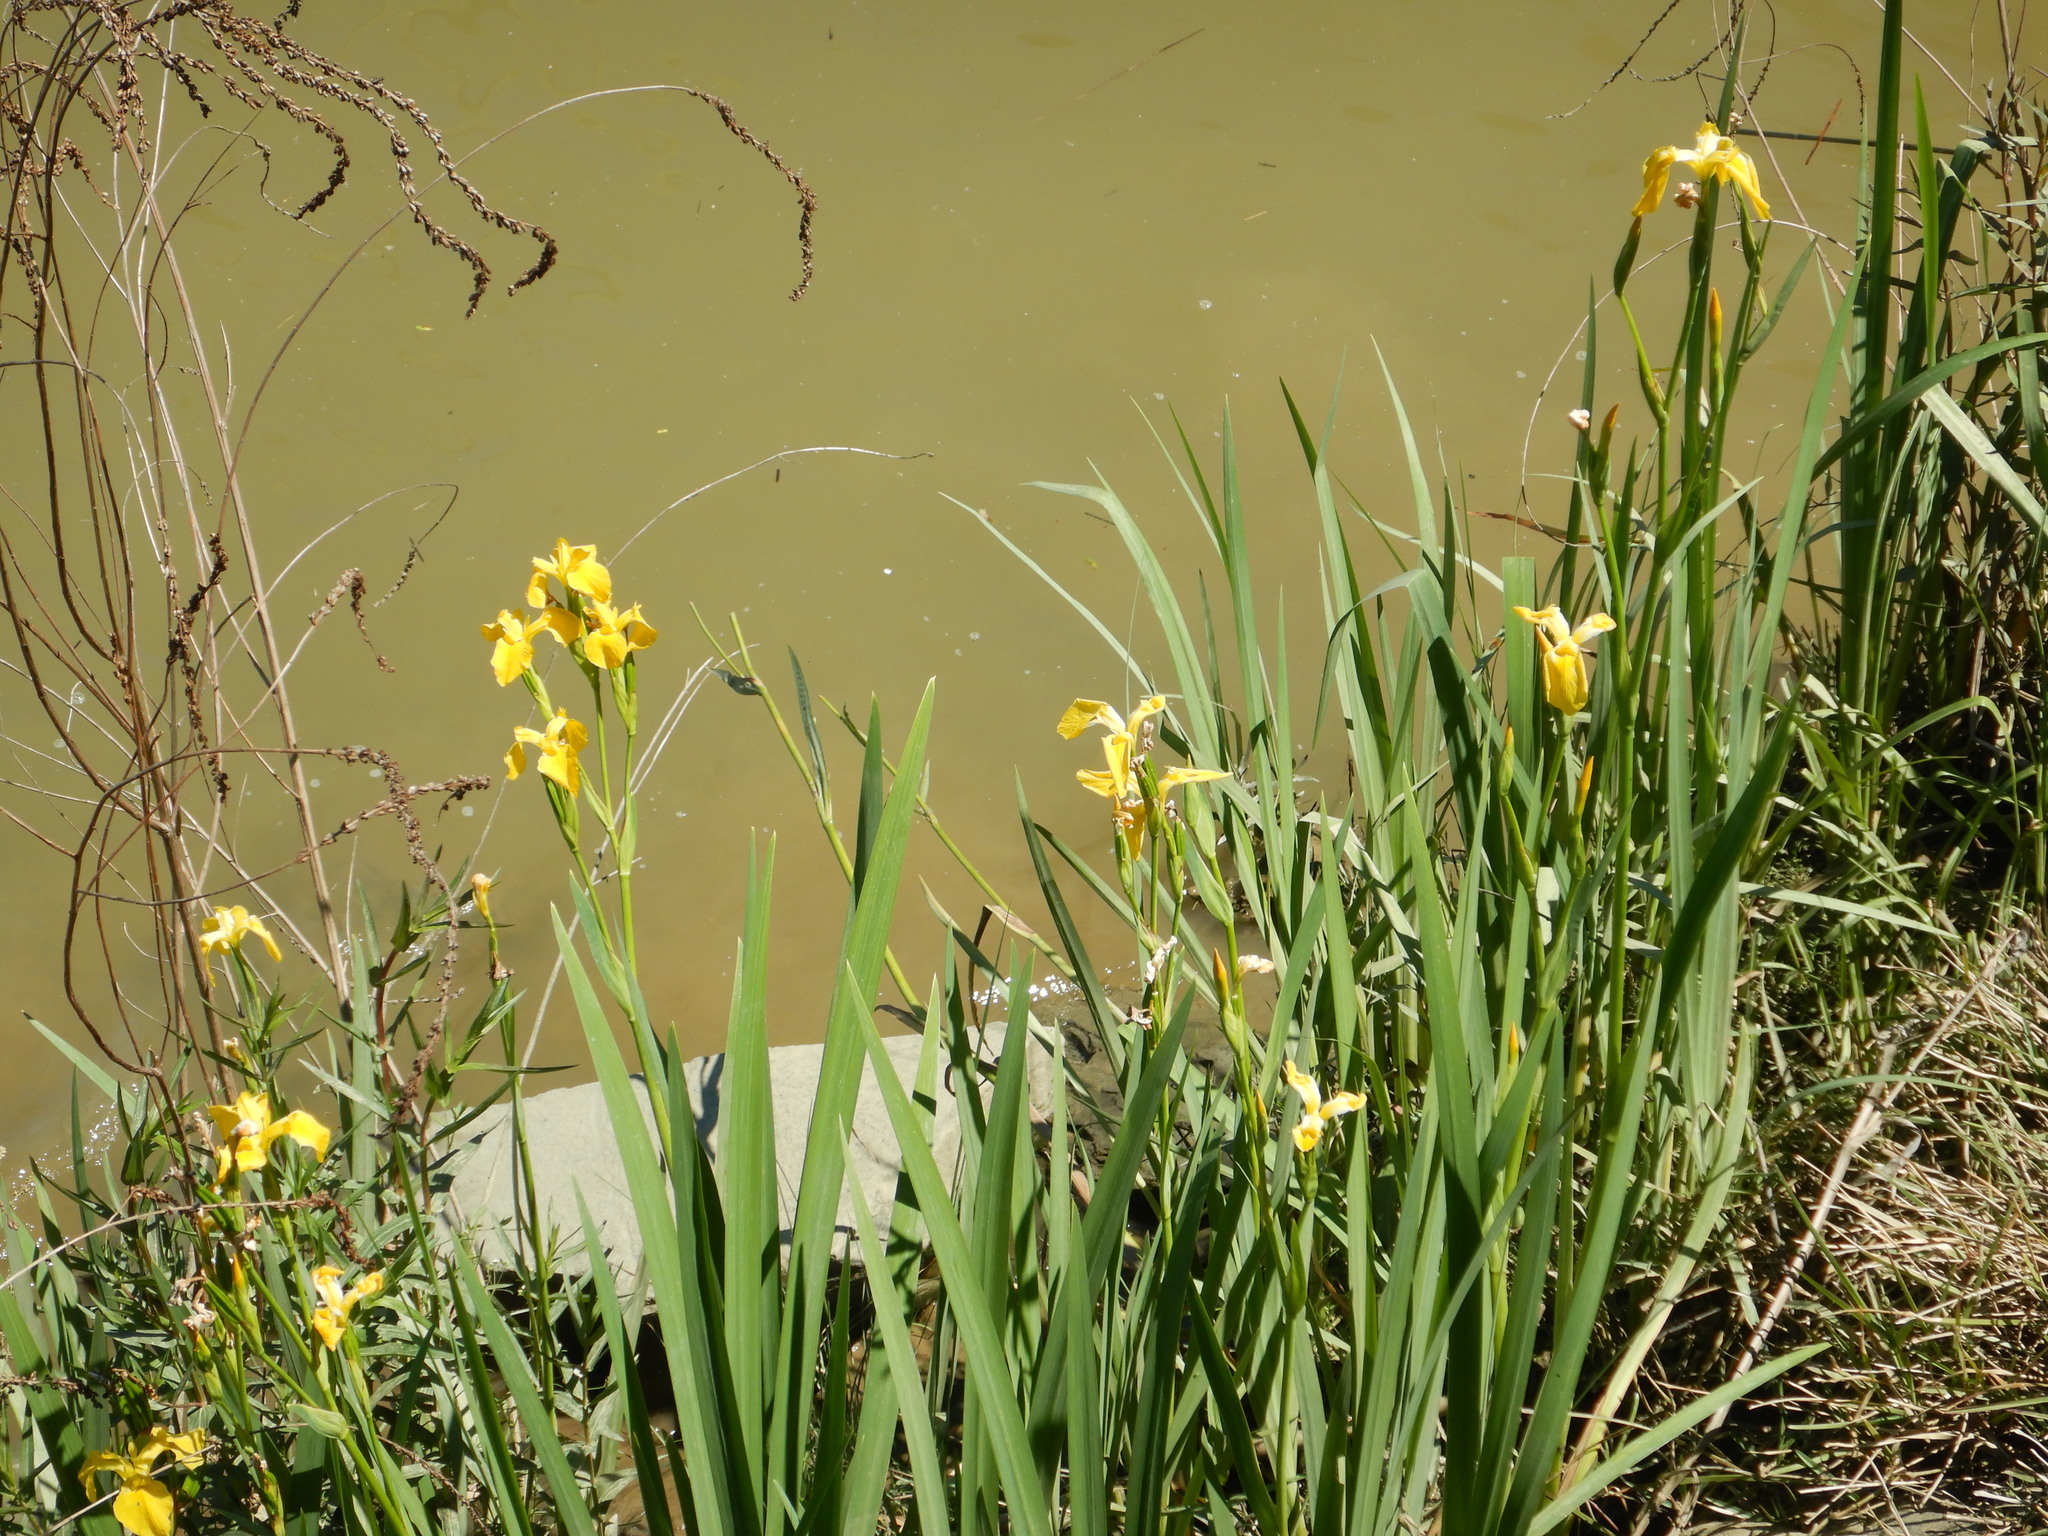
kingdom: Plantae
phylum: Tracheophyta
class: Liliopsida
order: Asparagales
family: Iridaceae
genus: Iris
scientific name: Iris pseudacorus
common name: Yellow flag
